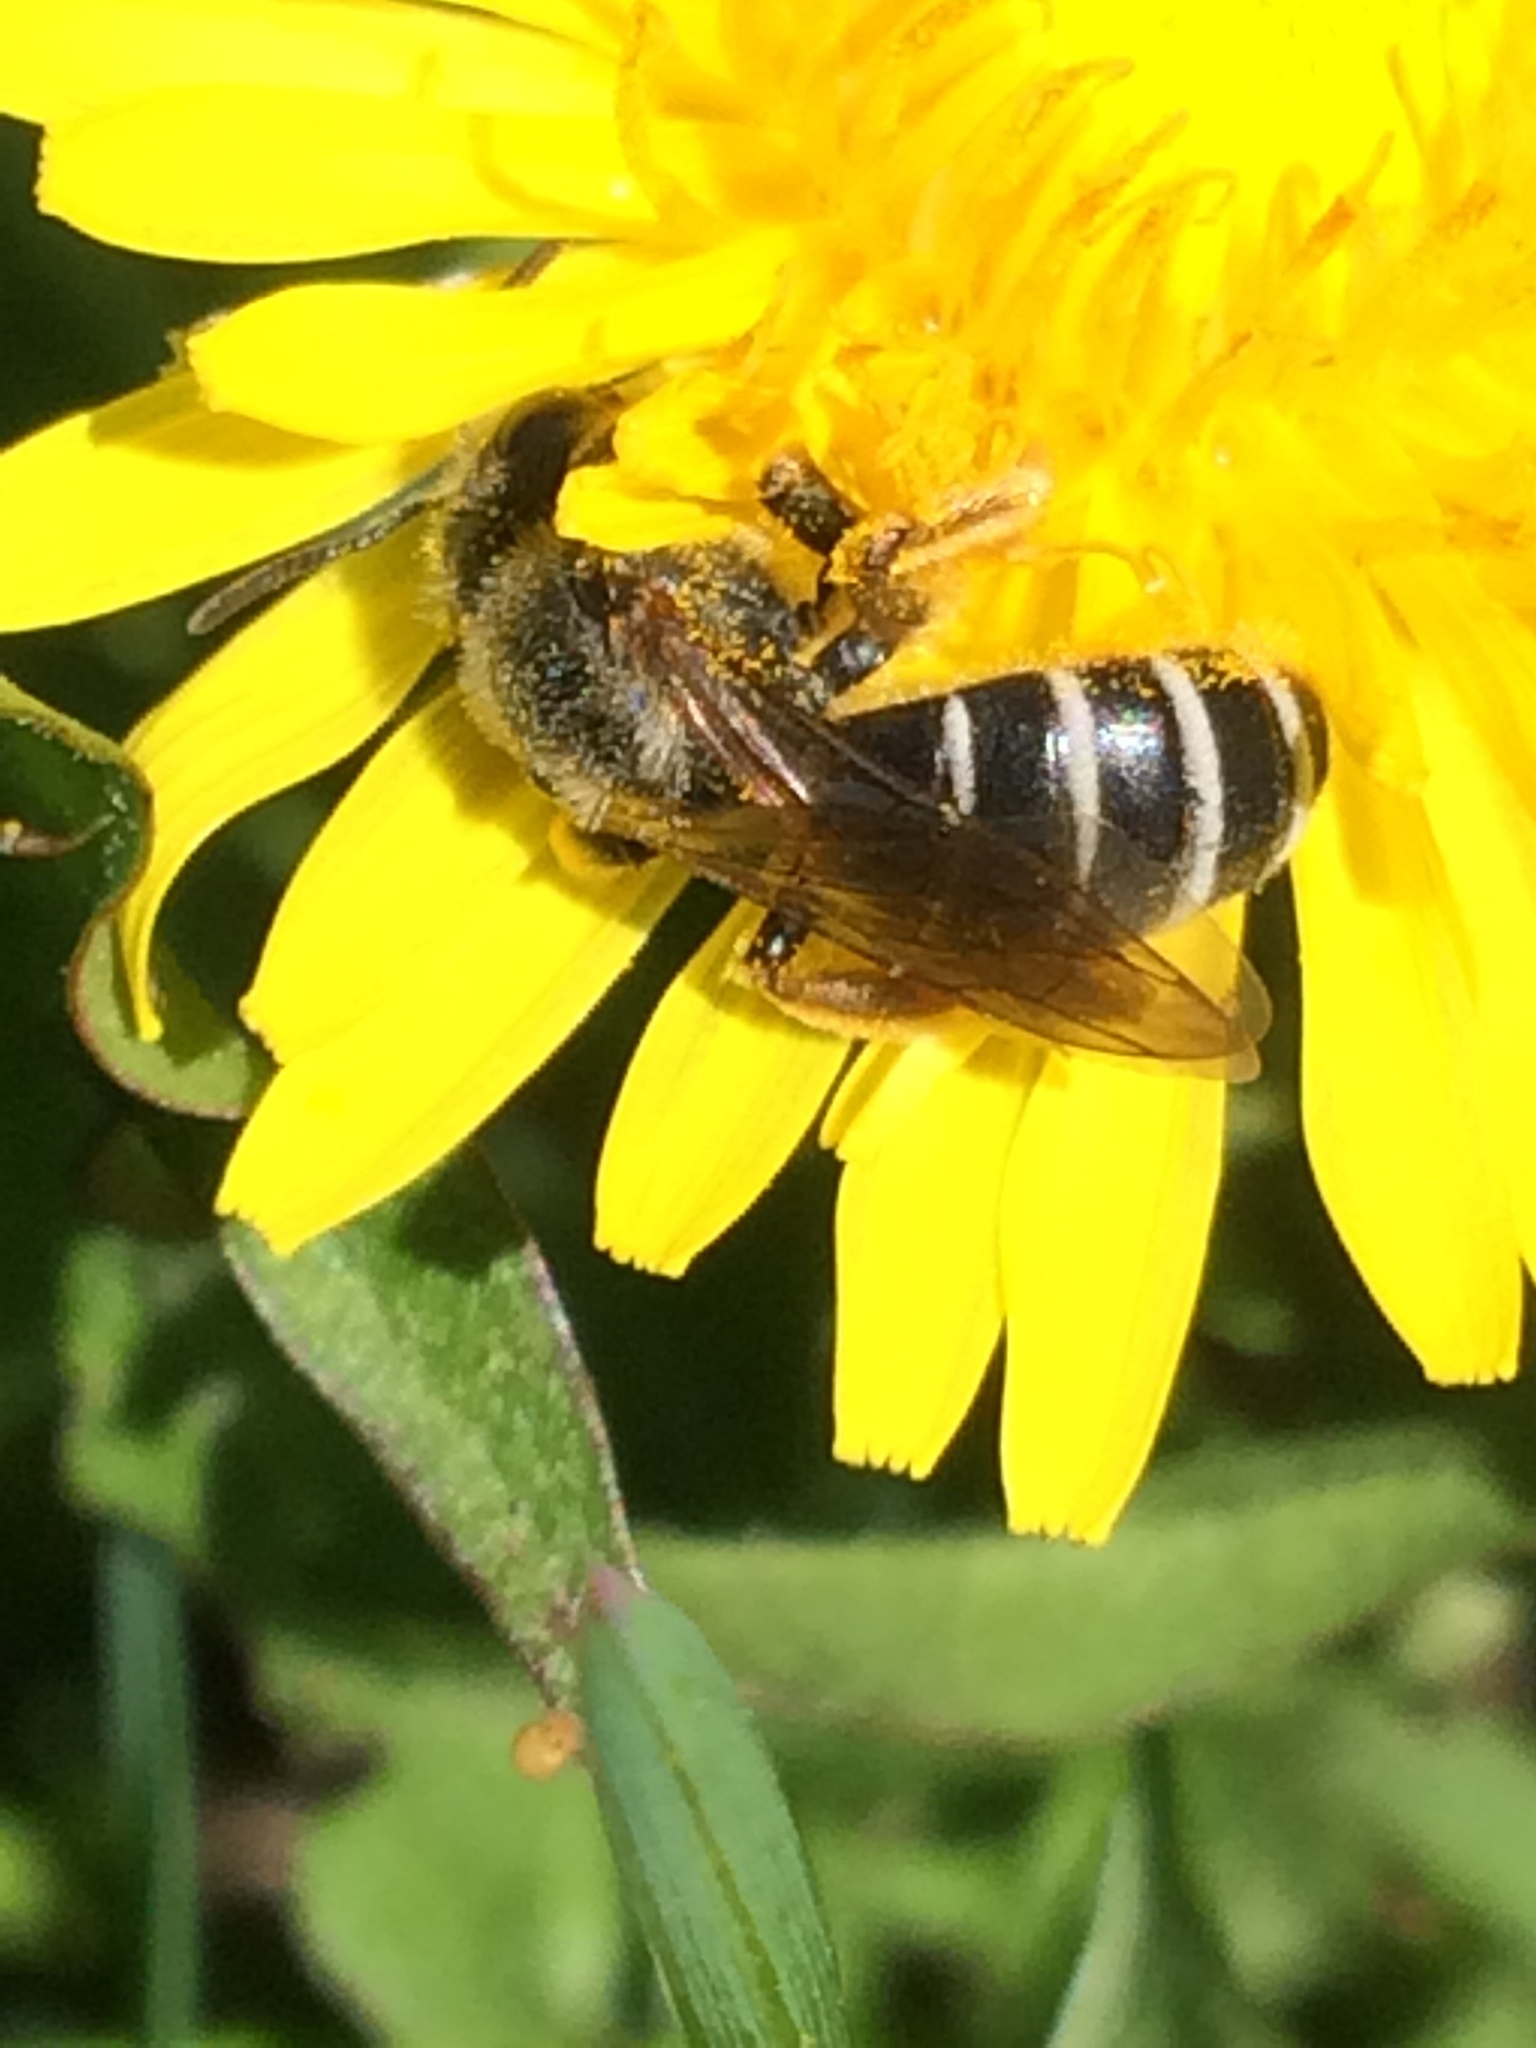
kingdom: Animalia
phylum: Arthropoda
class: Insecta
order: Hymenoptera
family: Halictidae
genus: Halictus
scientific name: Halictus rubicundus
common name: Orange-legged furrow bee
